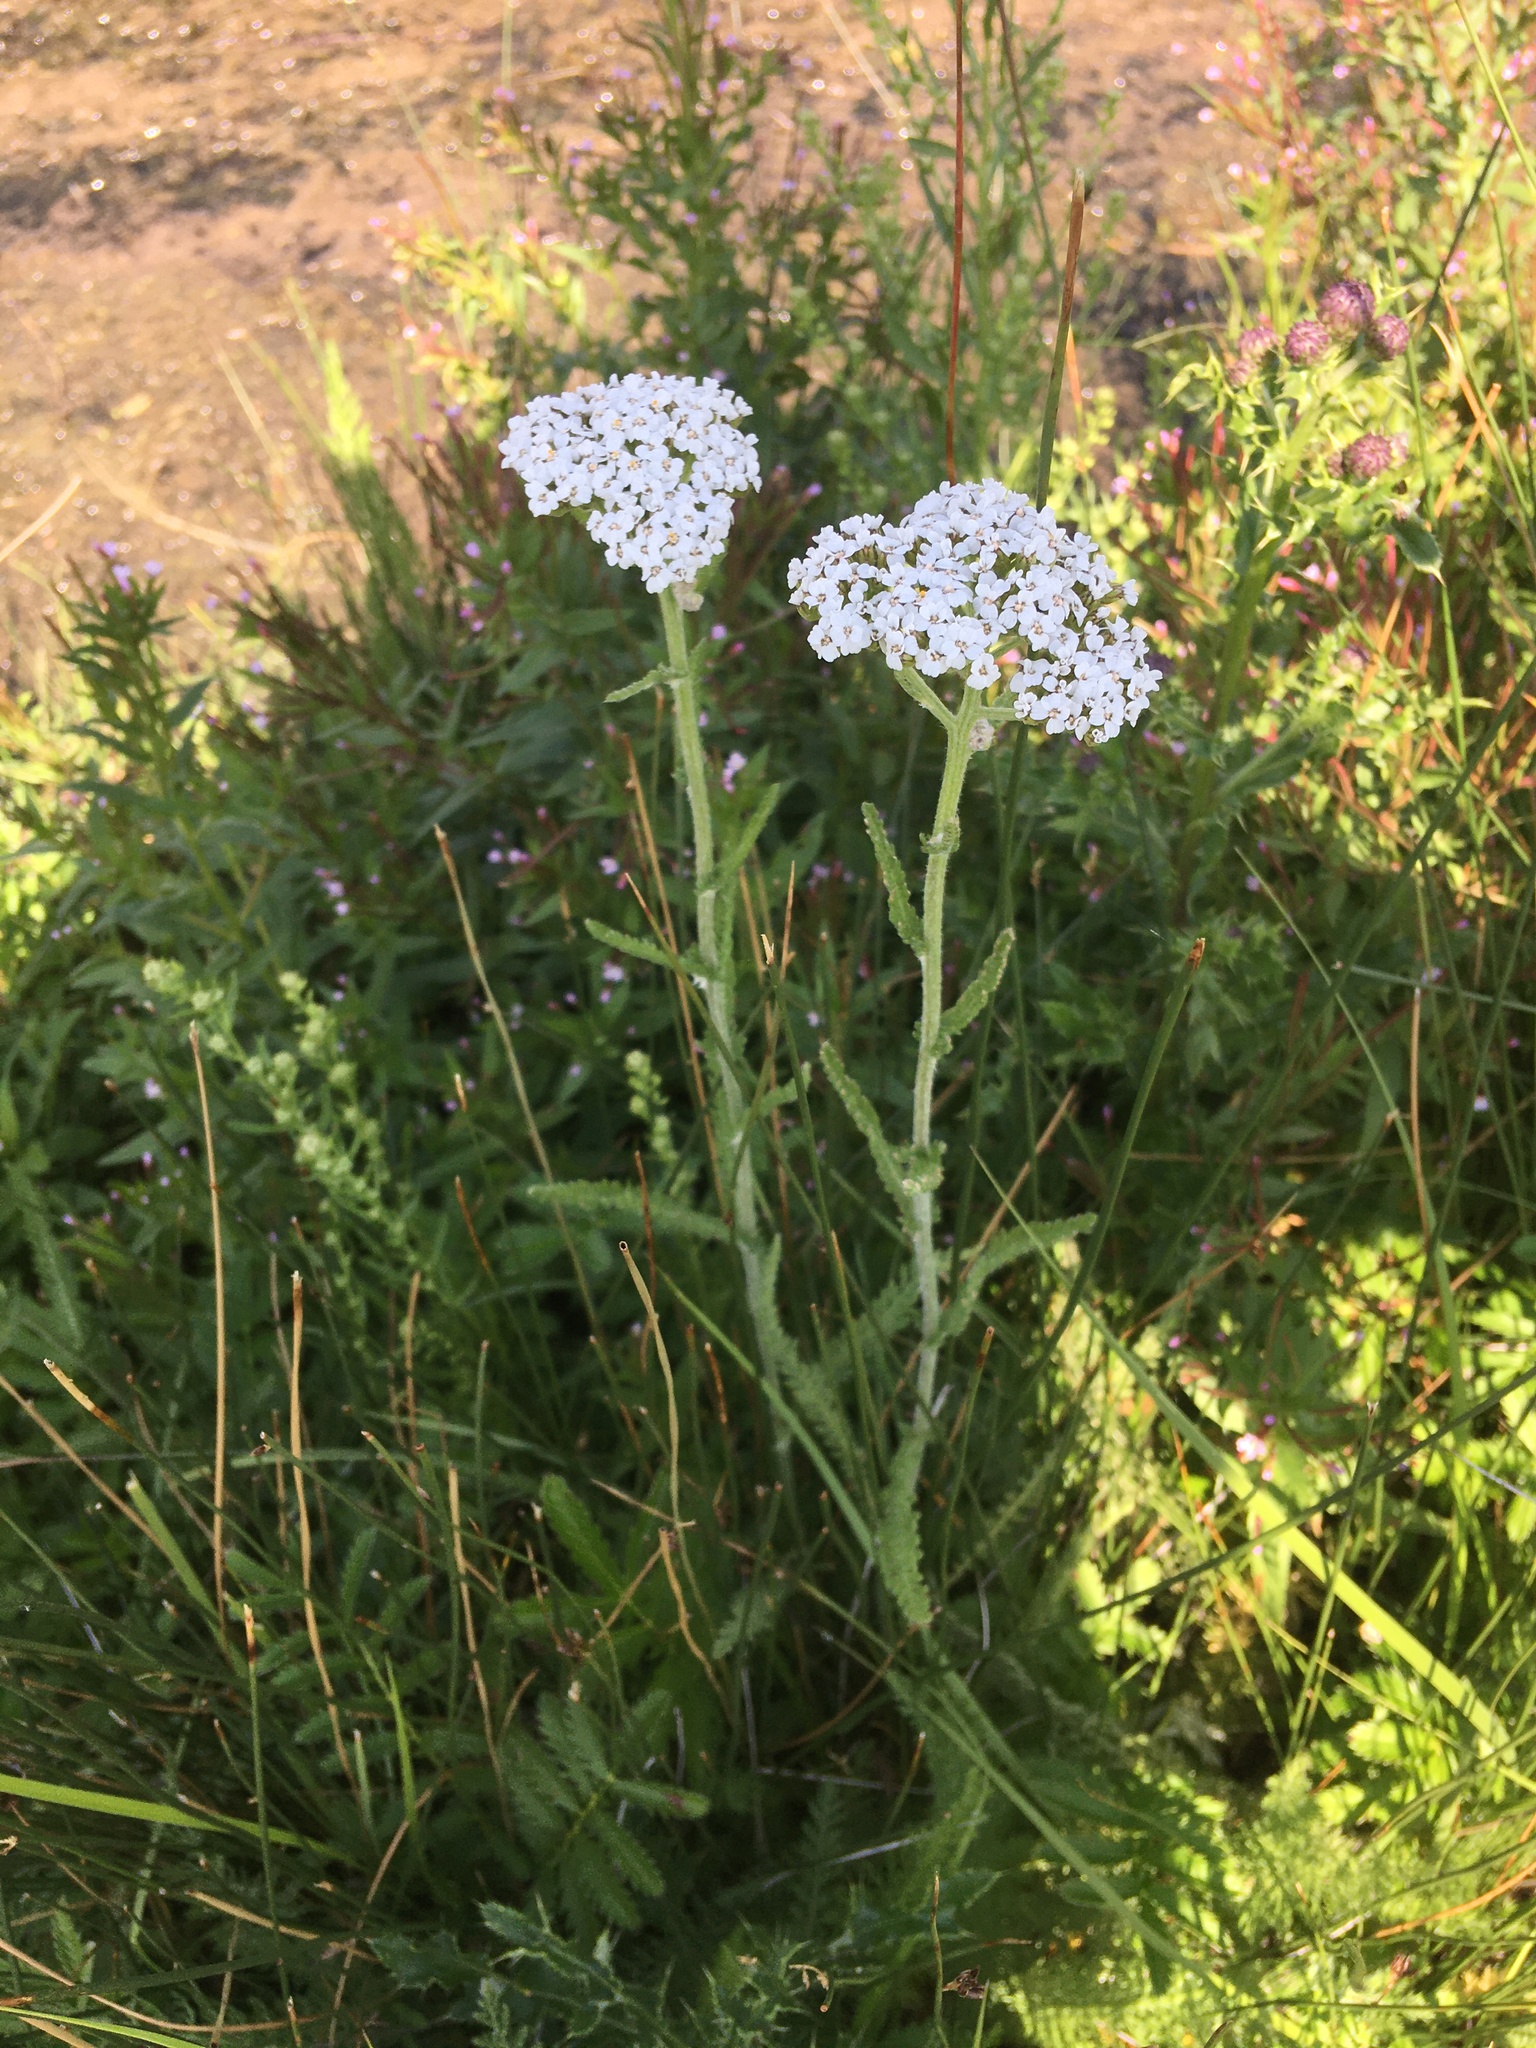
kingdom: Plantae
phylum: Tracheophyta
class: Magnoliopsida
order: Asterales
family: Asteraceae
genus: Achillea
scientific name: Achillea millefolium
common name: Yarrow
